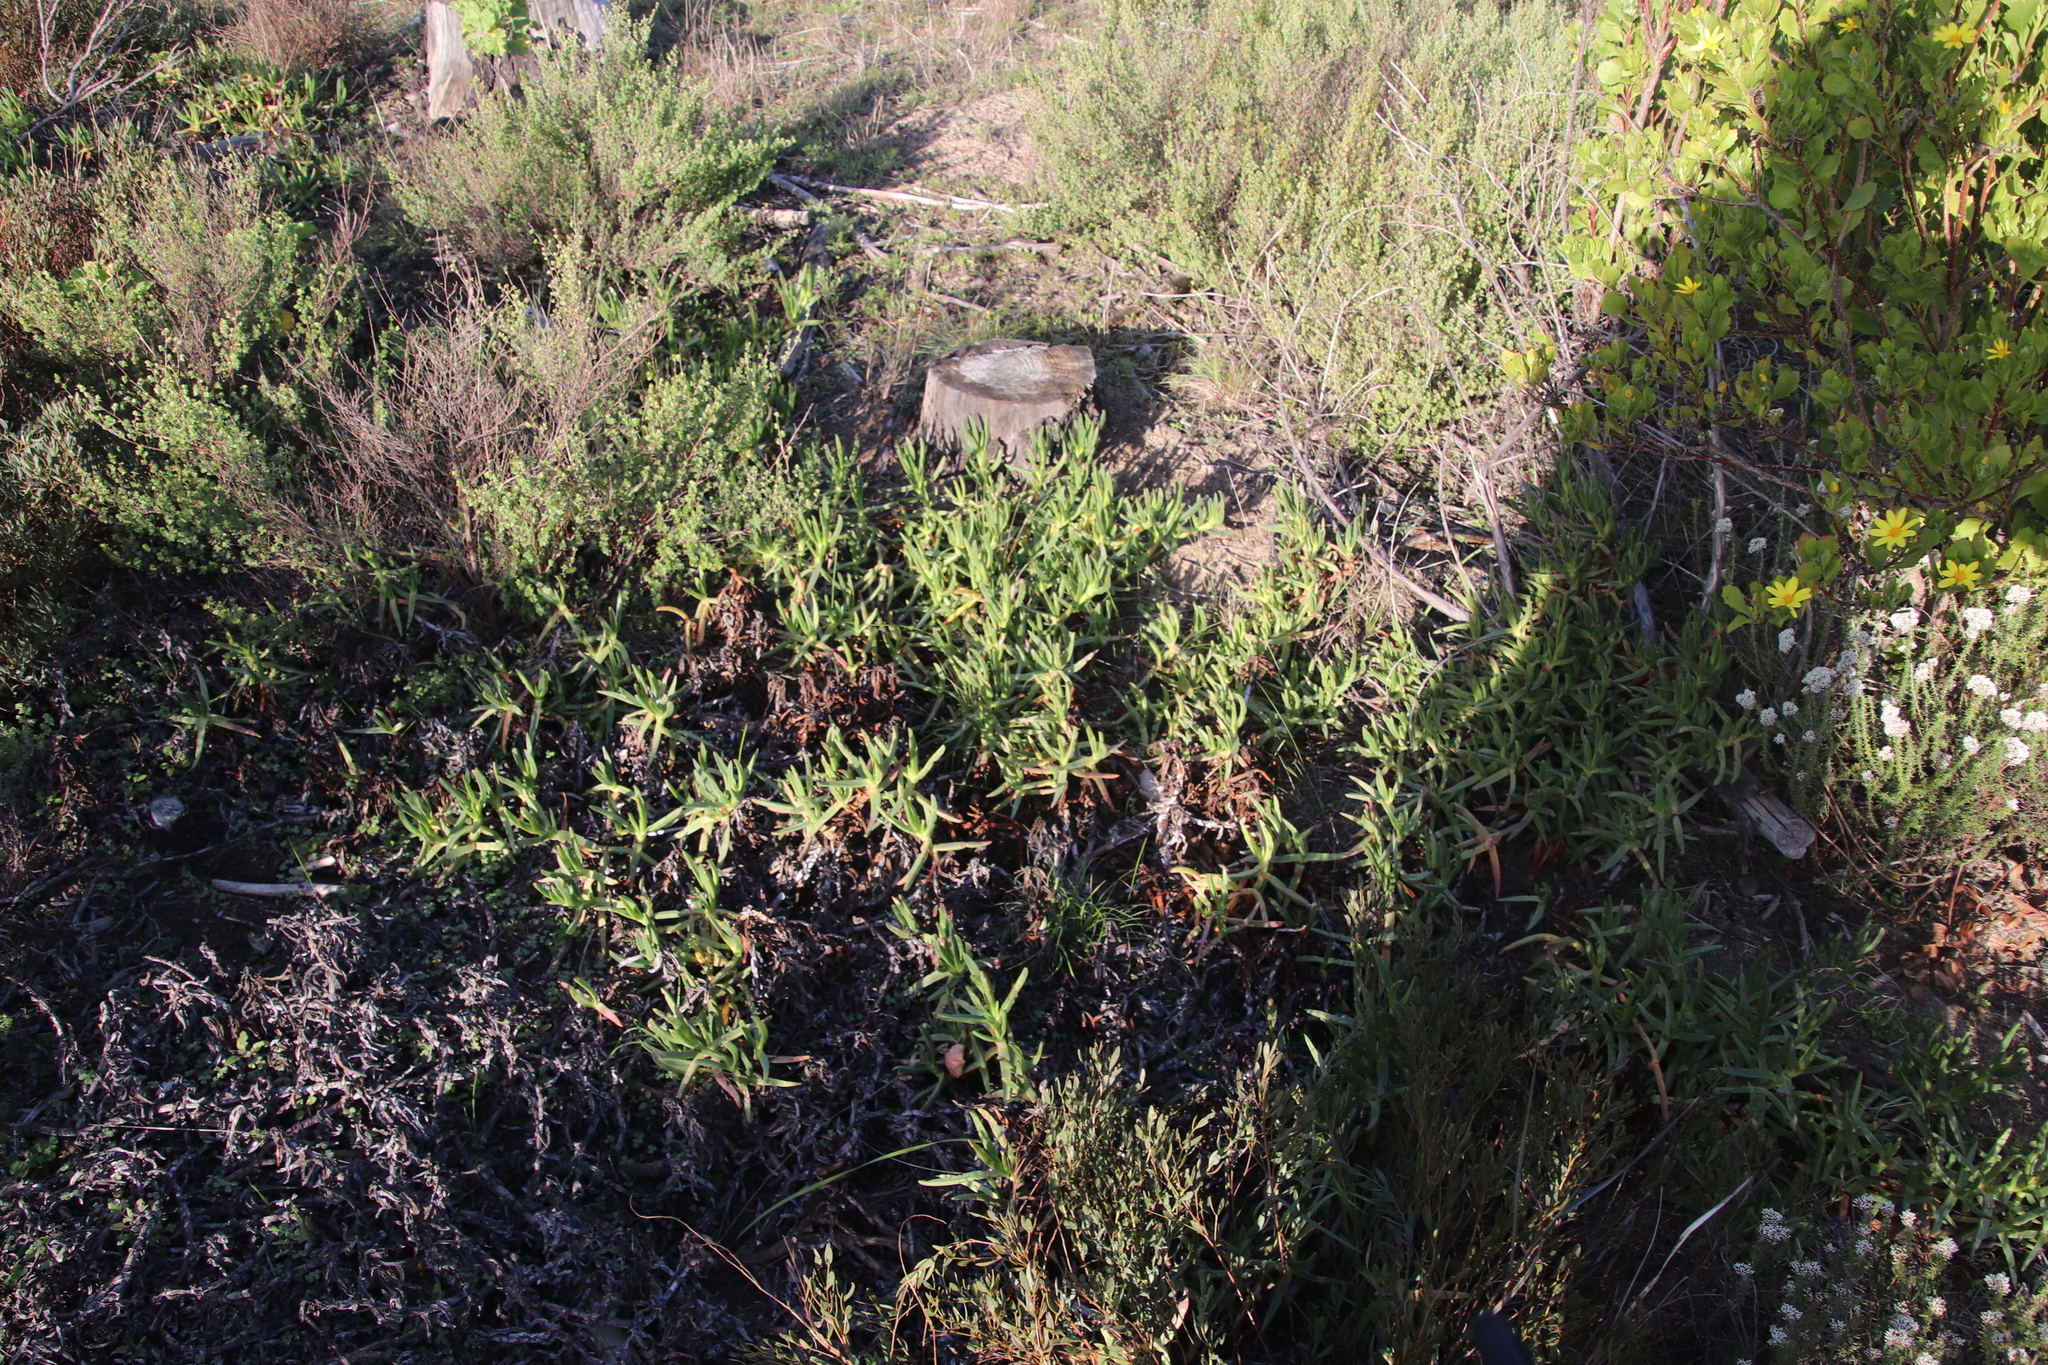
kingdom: Plantae
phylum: Tracheophyta
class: Magnoliopsida
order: Caryophyllales
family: Aizoaceae
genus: Carpobrotus
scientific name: Carpobrotus edulis
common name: Hottentot-fig
